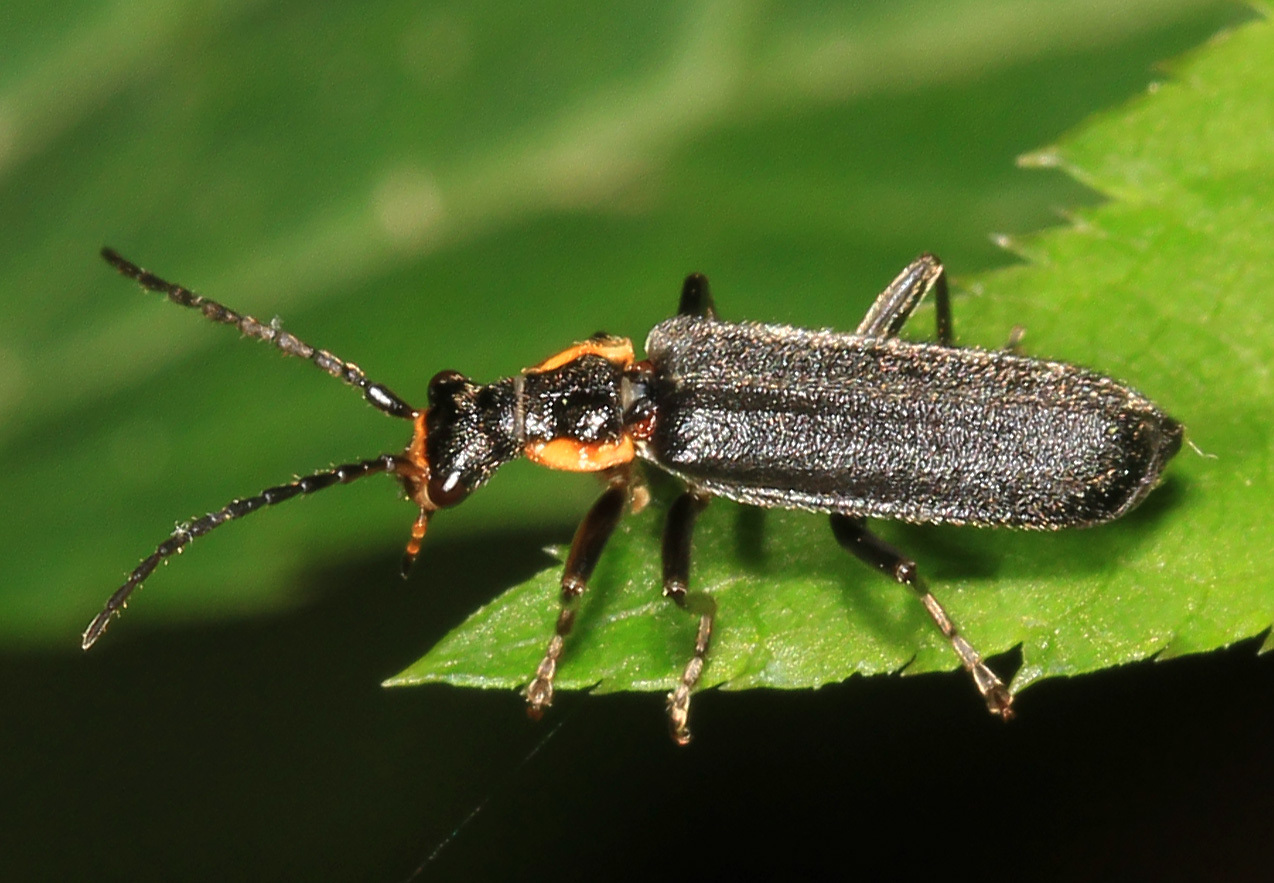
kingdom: Animalia
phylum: Arthropoda
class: Insecta
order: Coleoptera
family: Cantharidae
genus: Podabrus
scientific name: Podabrus rugosulus
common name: Wrinkled soldier beetle
